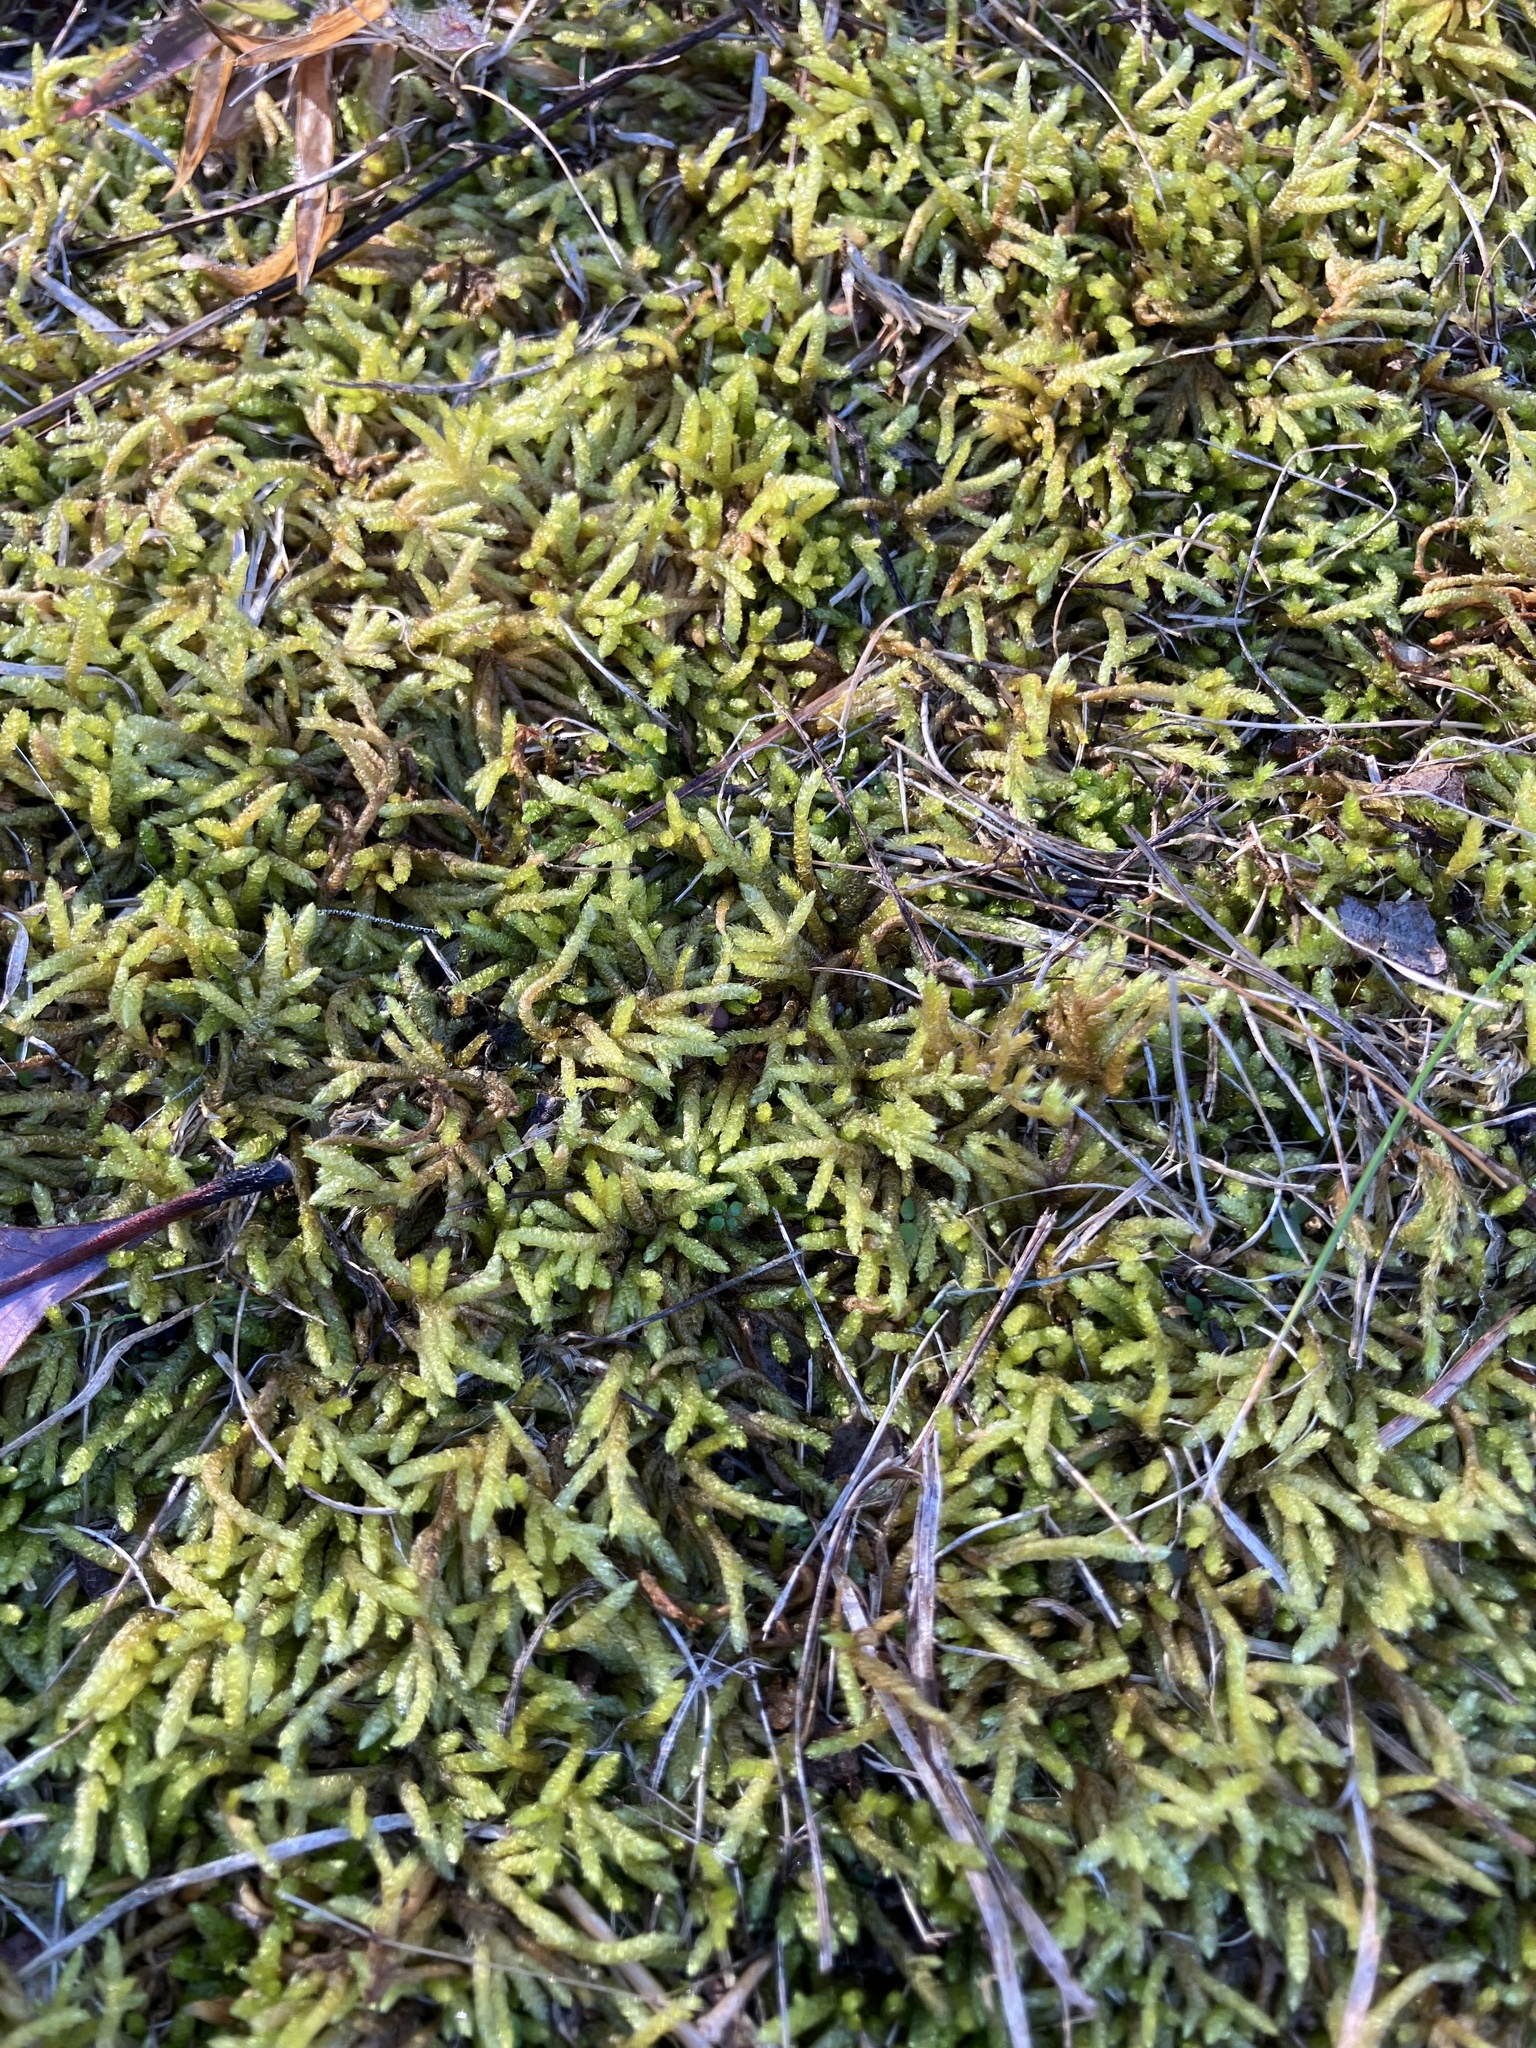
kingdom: Plantae
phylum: Bryophyta
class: Bryopsida
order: Hypnales
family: Brachytheciaceae
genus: Bryoandersonia
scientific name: Bryoandersonia illecebra
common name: Spoon-leaved moss
